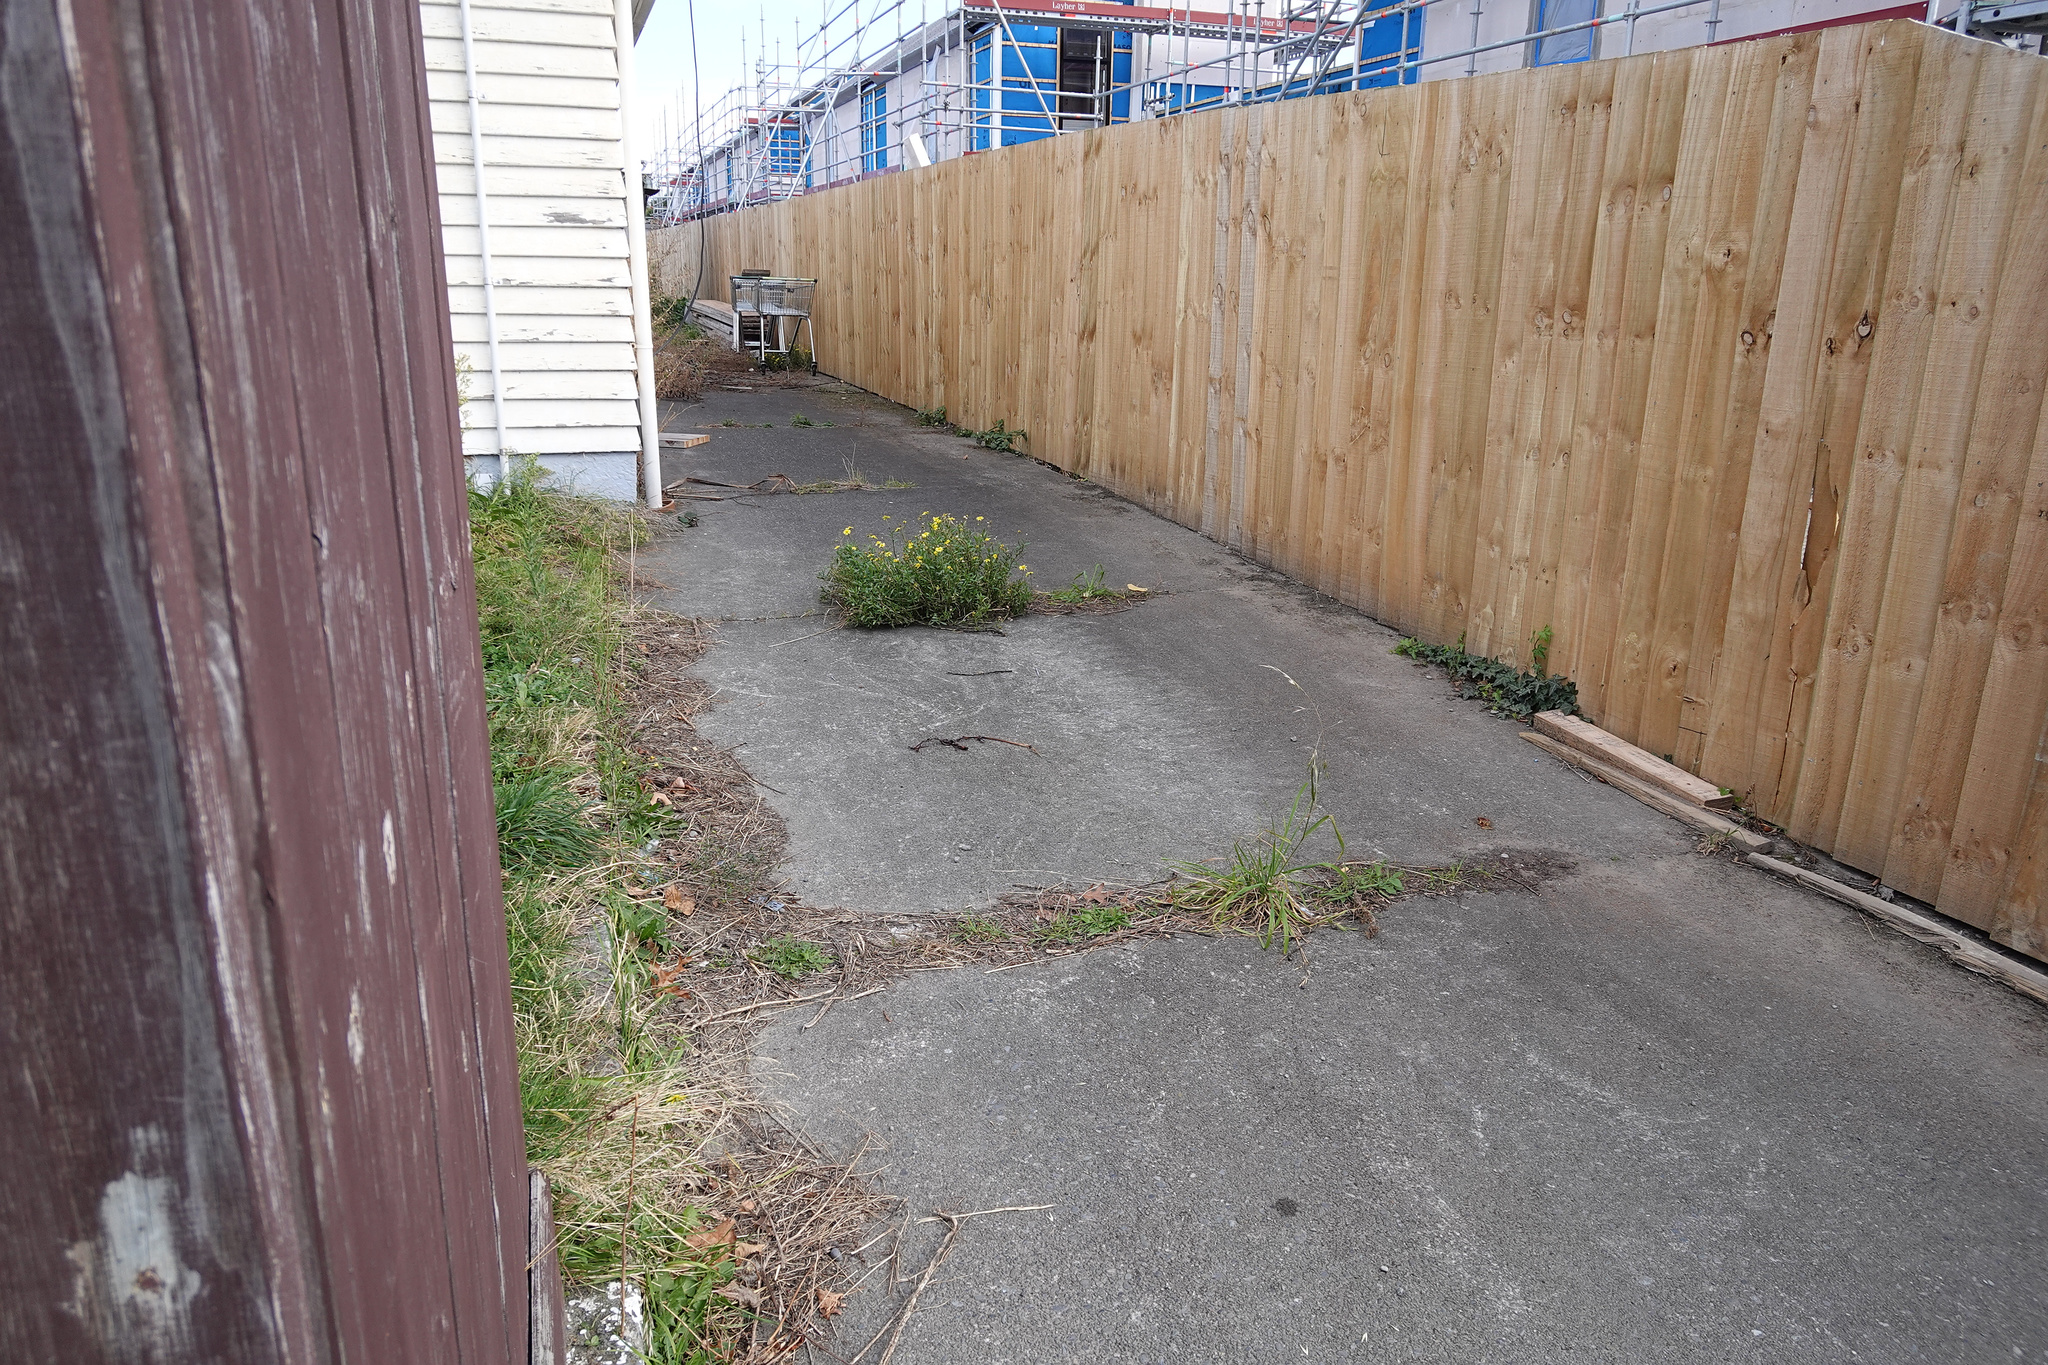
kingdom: Plantae
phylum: Tracheophyta
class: Magnoliopsida
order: Asterales
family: Asteraceae
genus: Senecio
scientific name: Senecio skirrhodon
